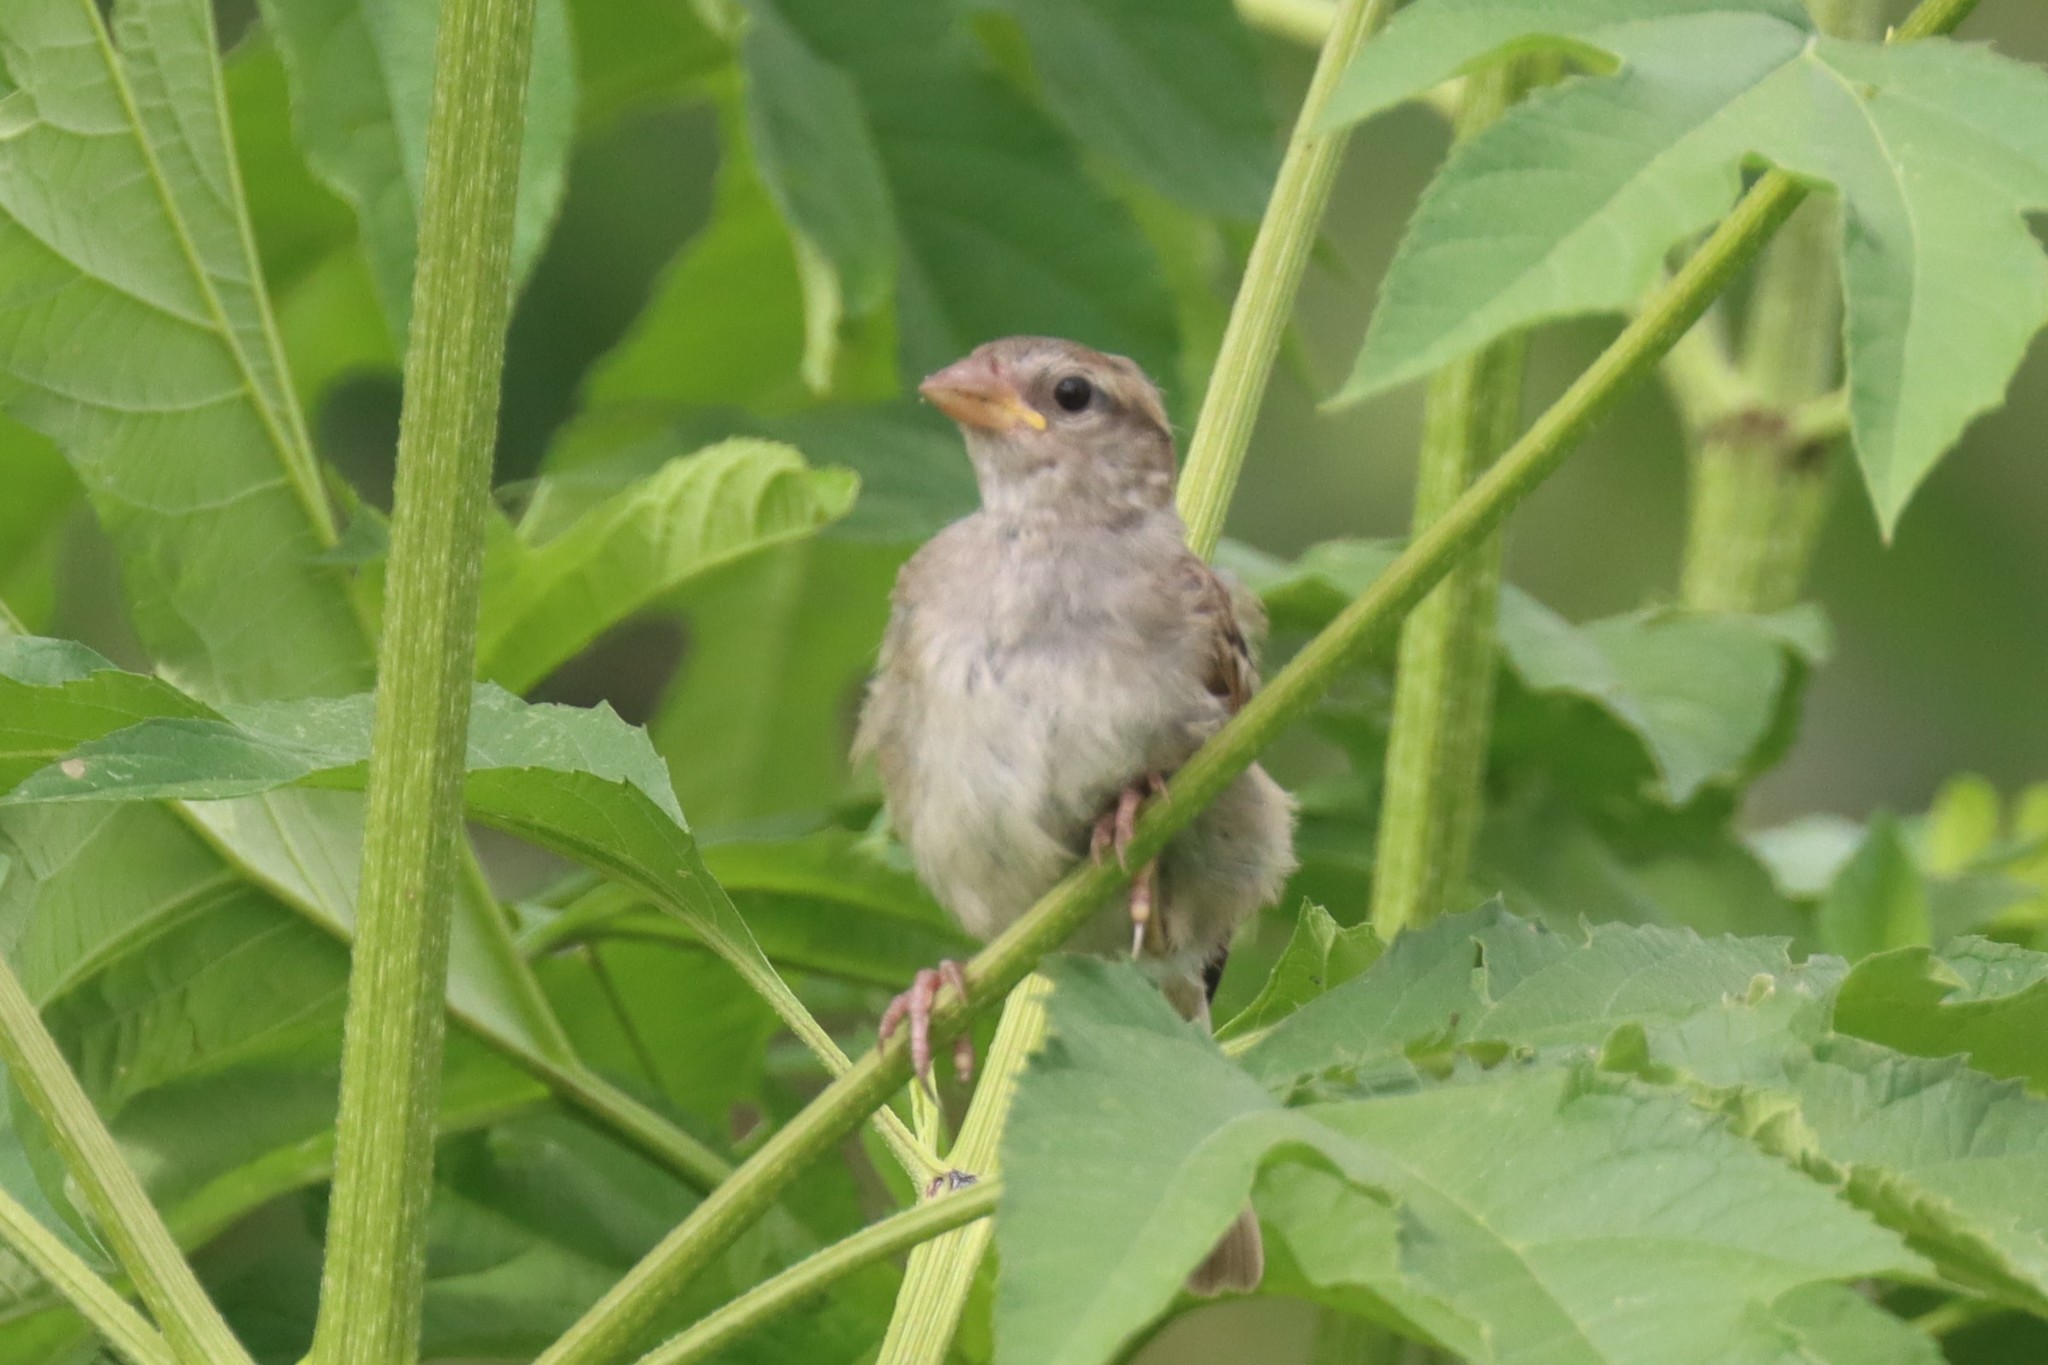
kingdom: Animalia
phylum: Chordata
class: Aves
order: Passeriformes
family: Passeridae
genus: Passer
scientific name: Passer domesticus
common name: House sparrow
